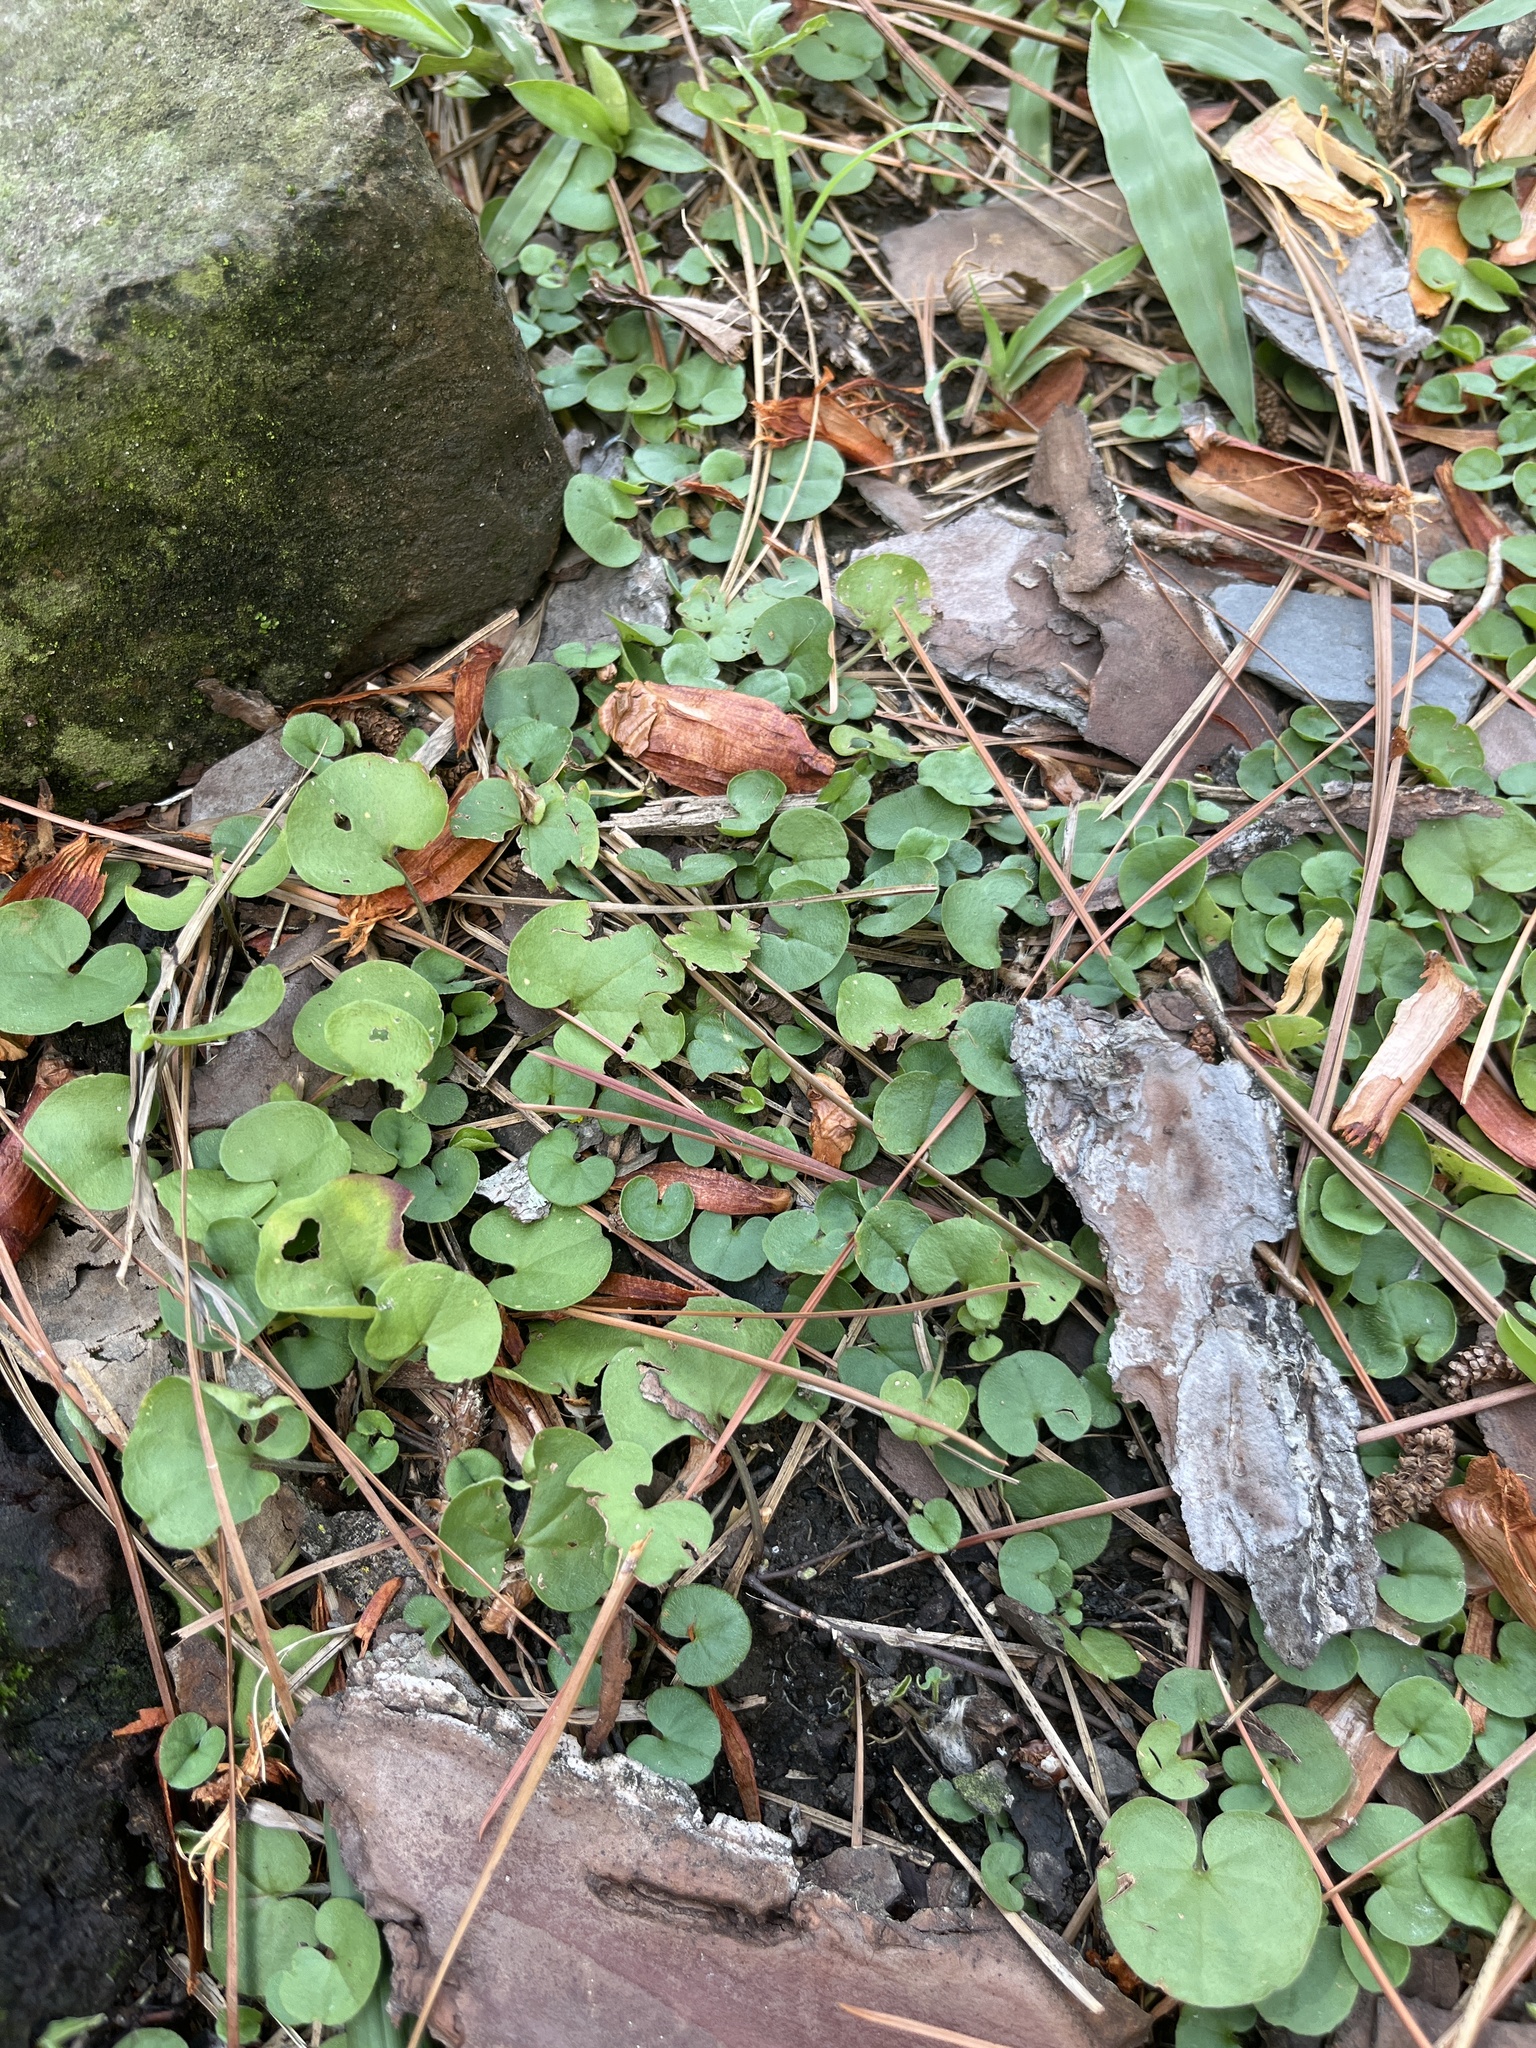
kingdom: Plantae
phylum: Tracheophyta
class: Magnoliopsida
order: Solanales
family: Convolvulaceae
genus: Dichondra
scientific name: Dichondra carolinensis
